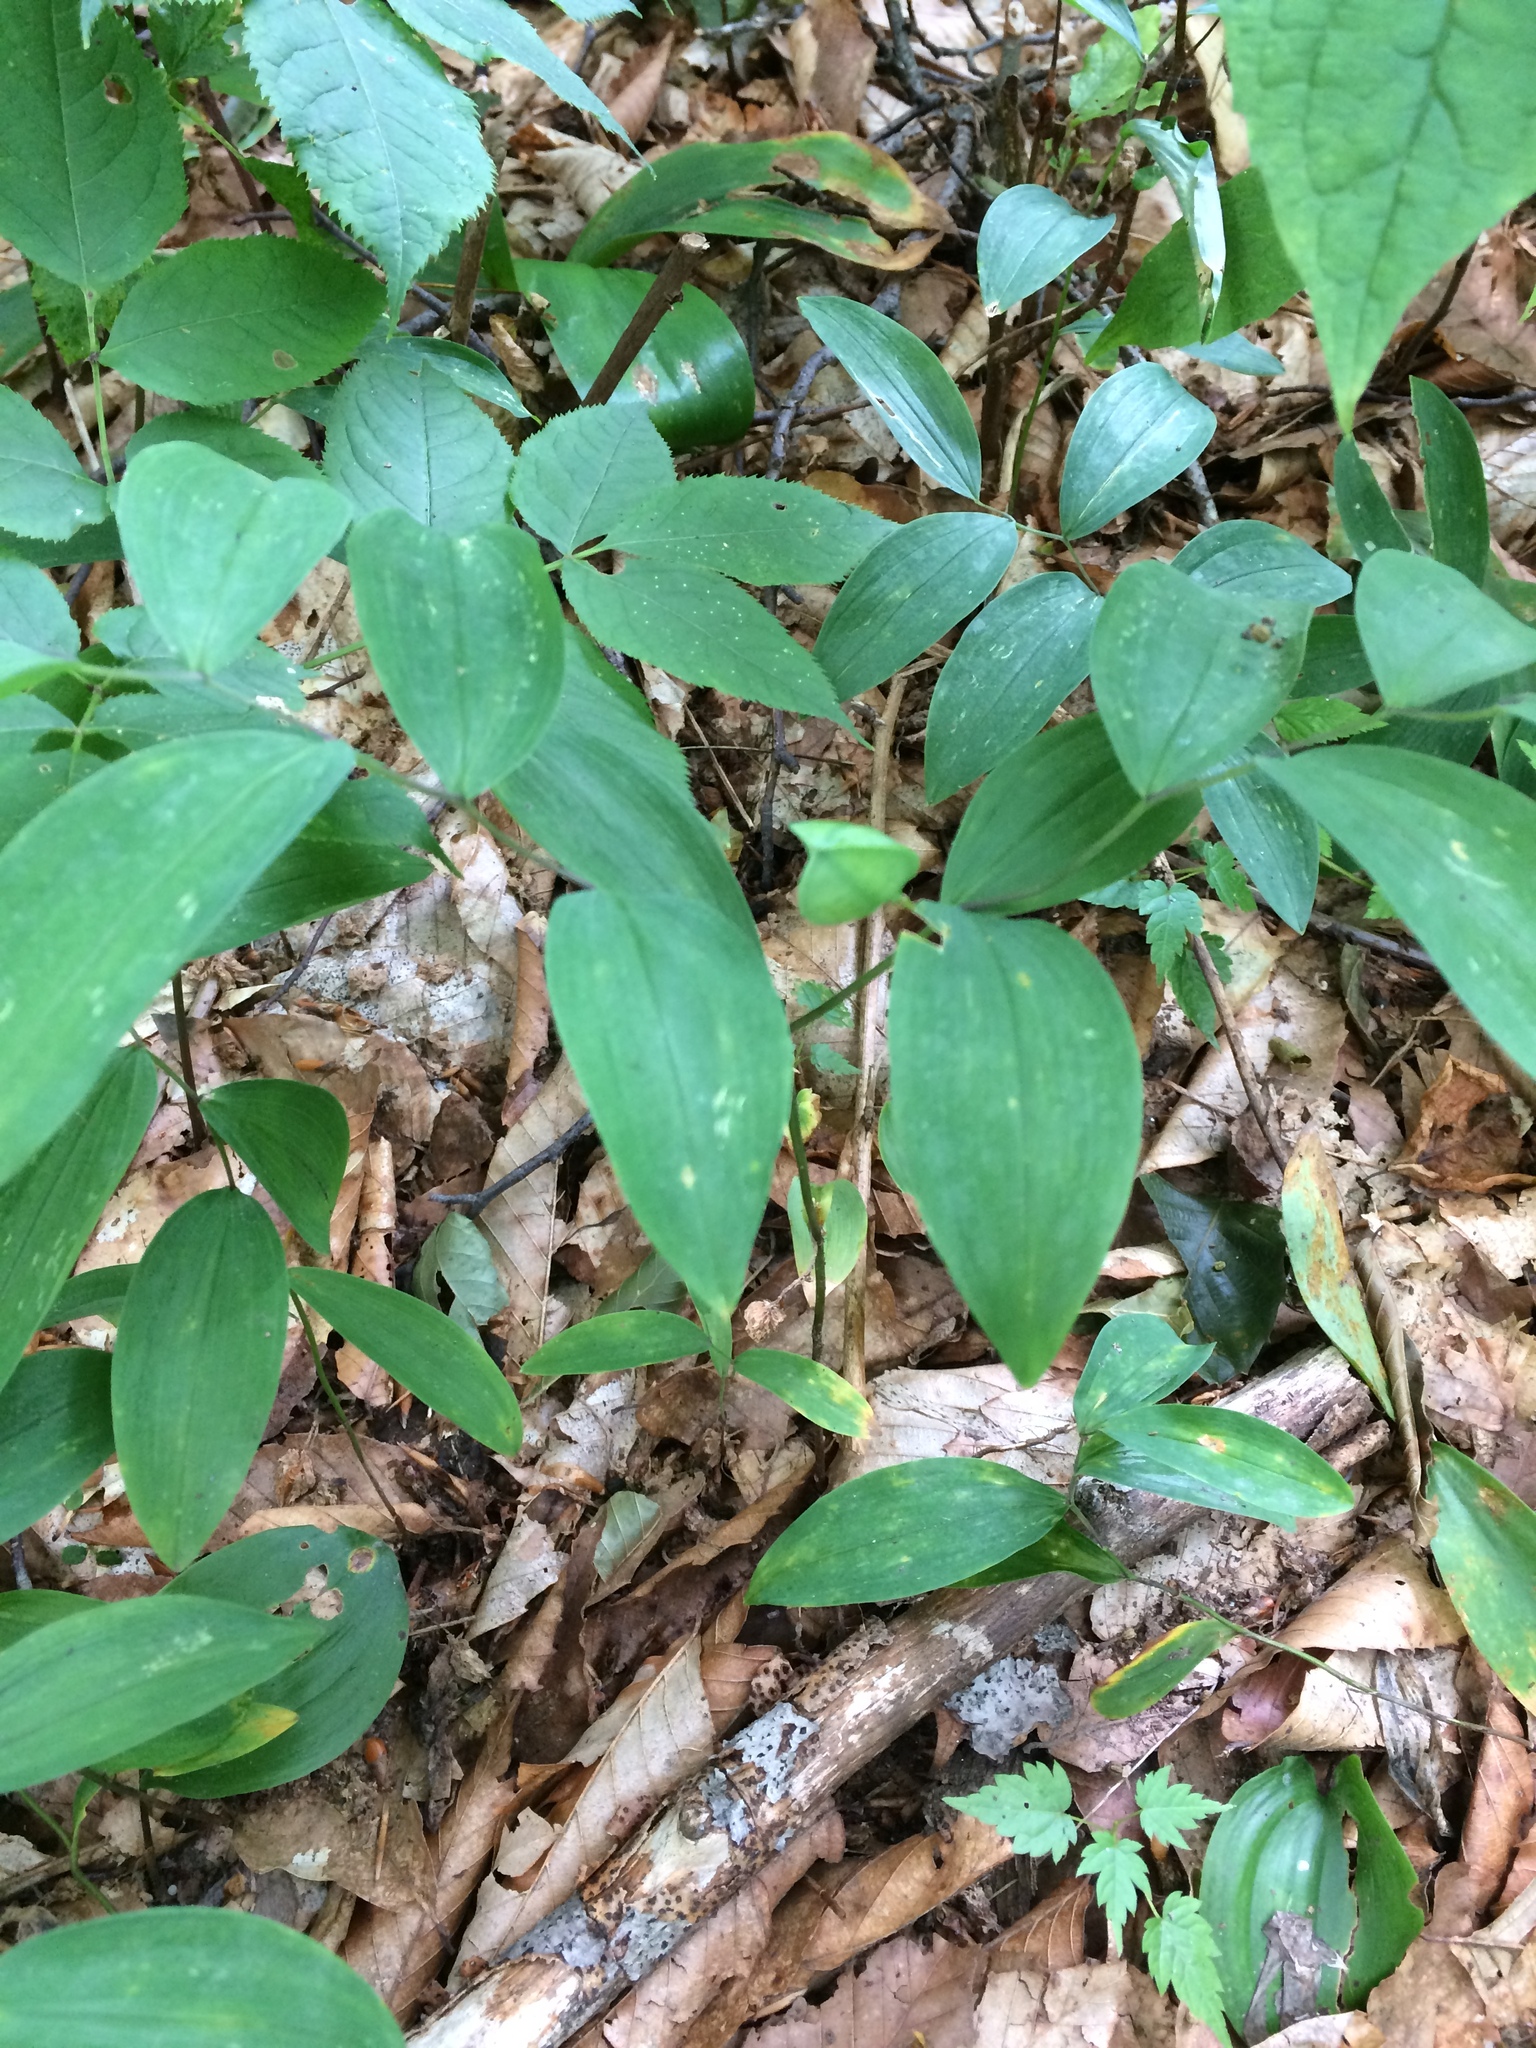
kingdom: Plantae
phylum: Tracheophyta
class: Liliopsida
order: Liliales
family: Colchicaceae
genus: Uvularia
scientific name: Uvularia sessilifolia
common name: Straw-lily
